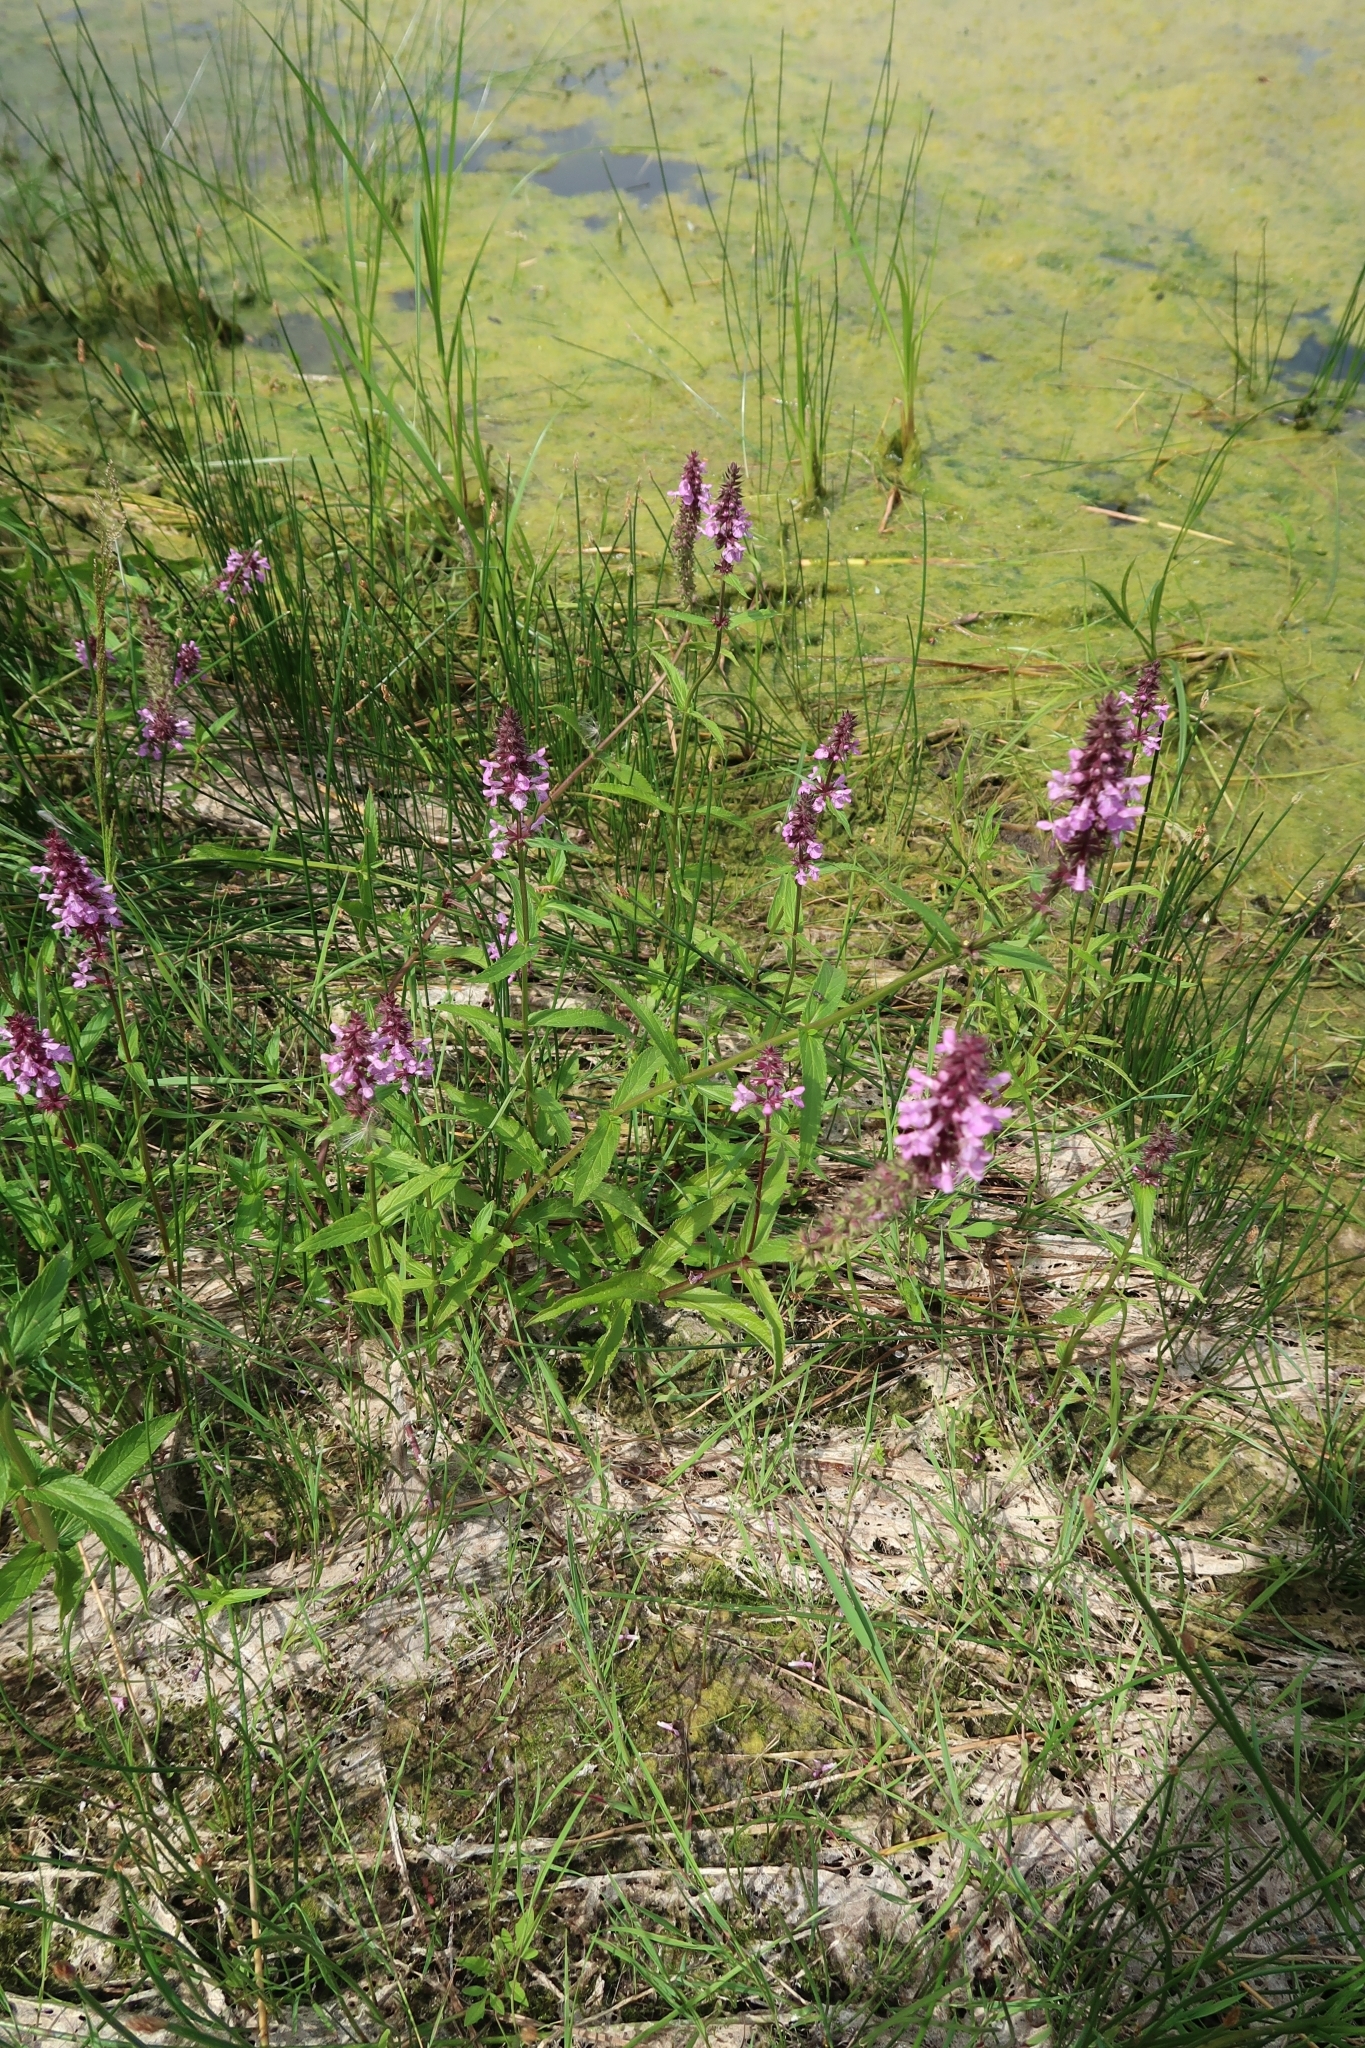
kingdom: Plantae
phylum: Tracheophyta
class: Magnoliopsida
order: Lamiales
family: Lamiaceae
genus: Stachys
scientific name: Stachys palustris
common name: Marsh woundwort
